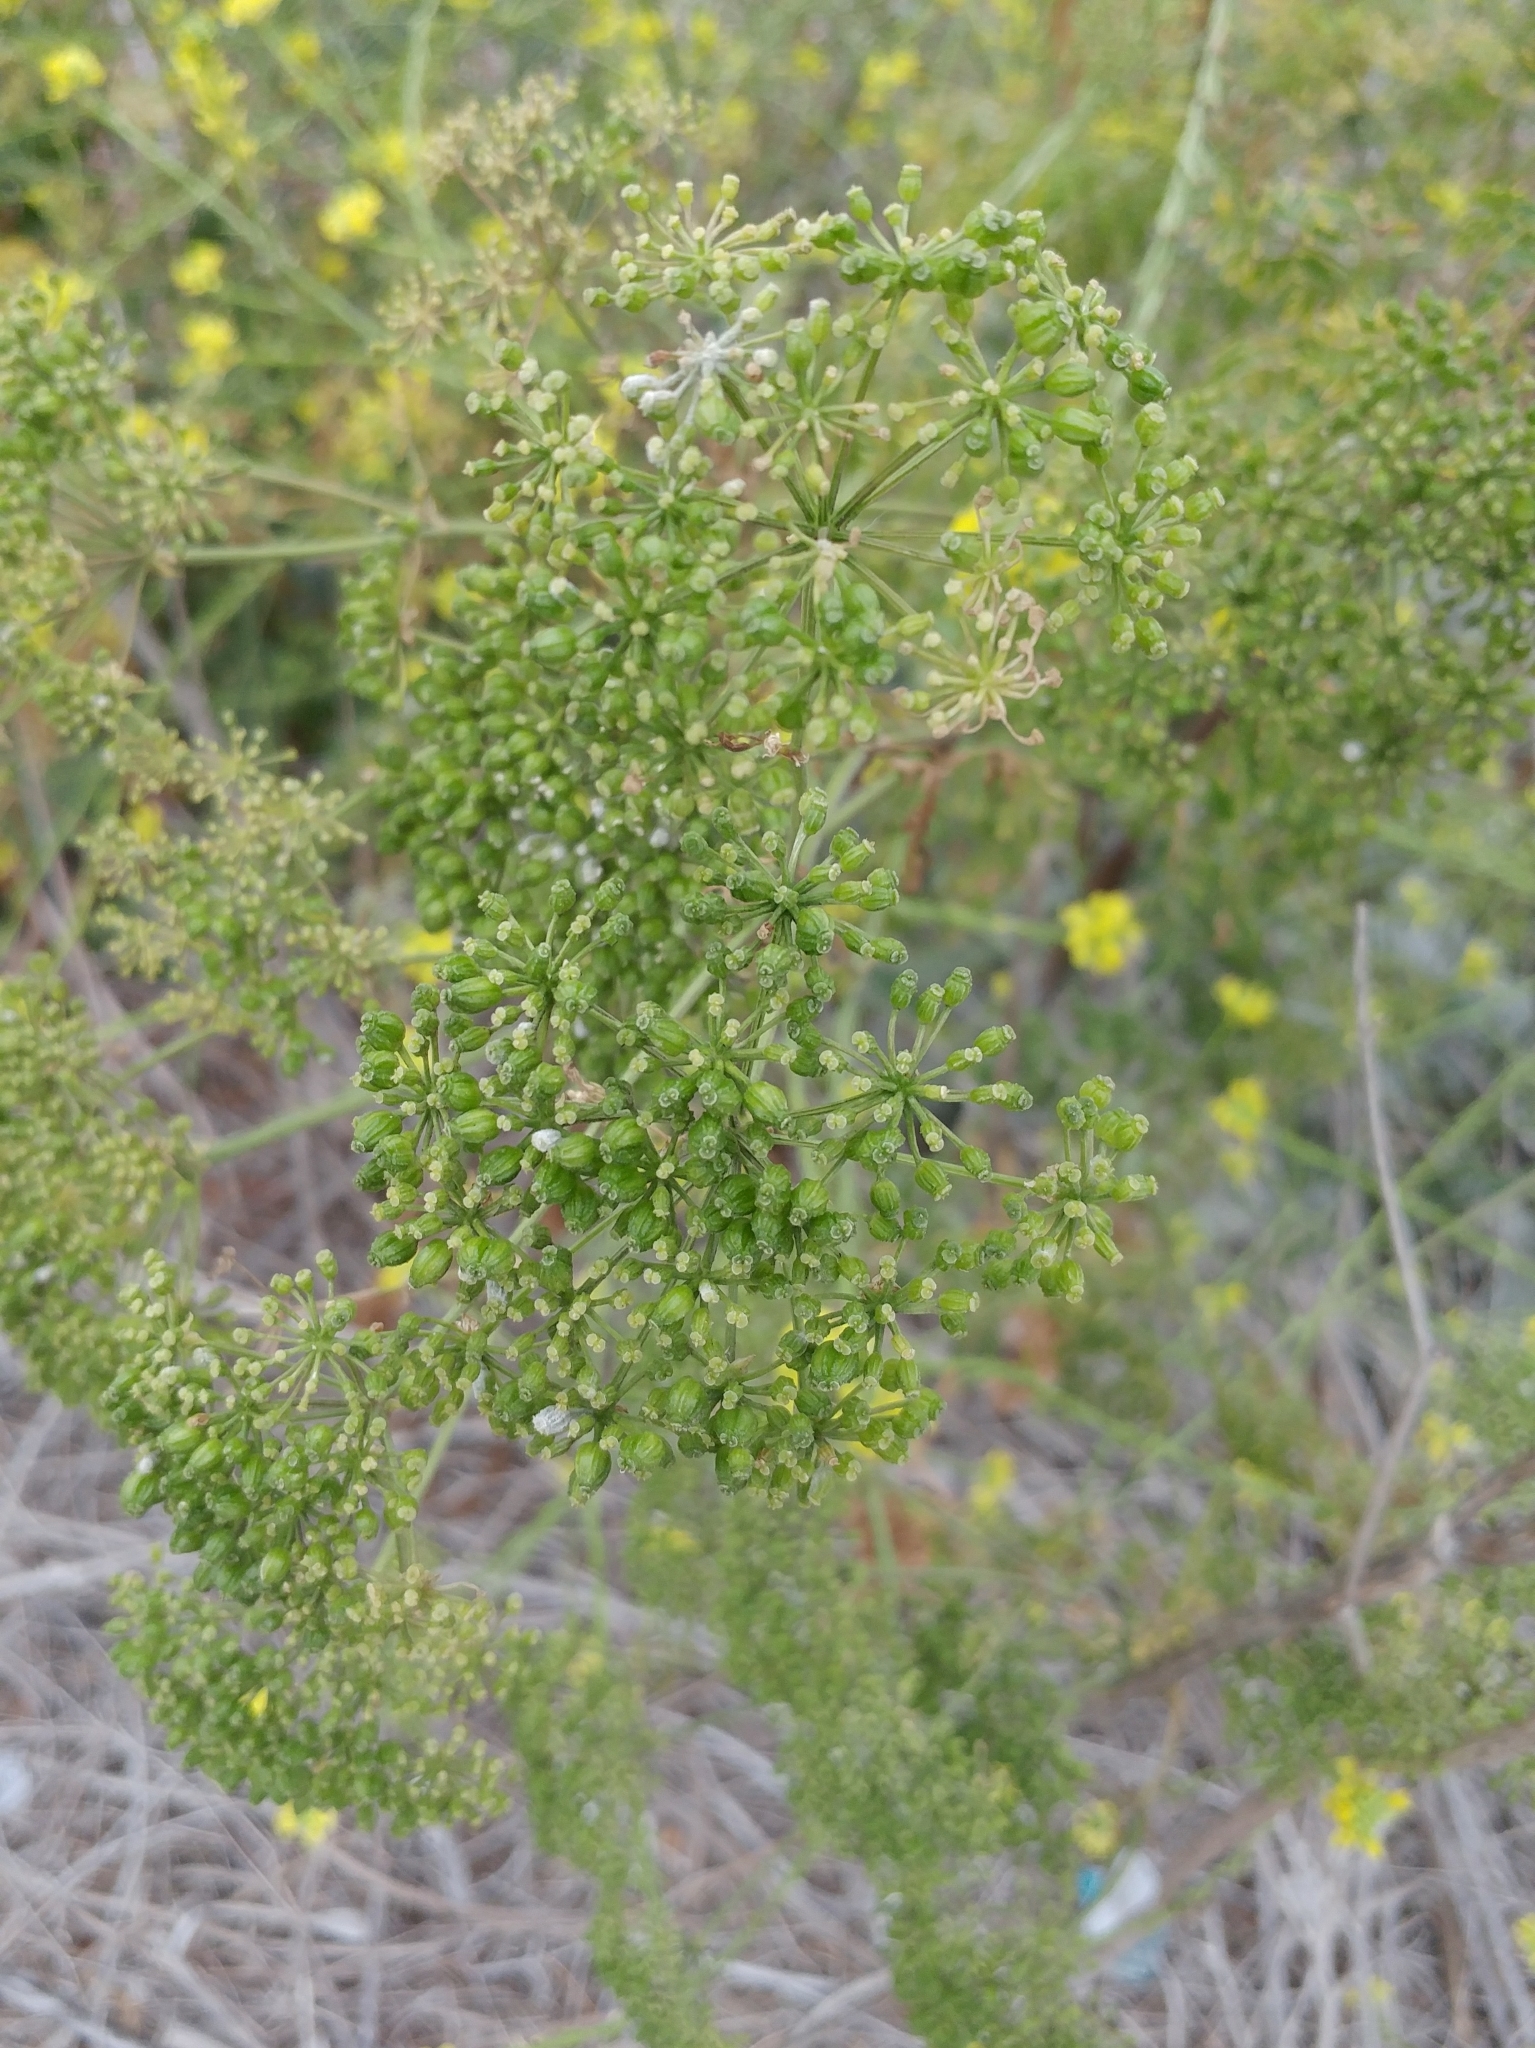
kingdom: Plantae
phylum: Tracheophyta
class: Magnoliopsida
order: Apiales
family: Apiaceae
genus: Conium
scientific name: Conium maculatum
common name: Hemlock
